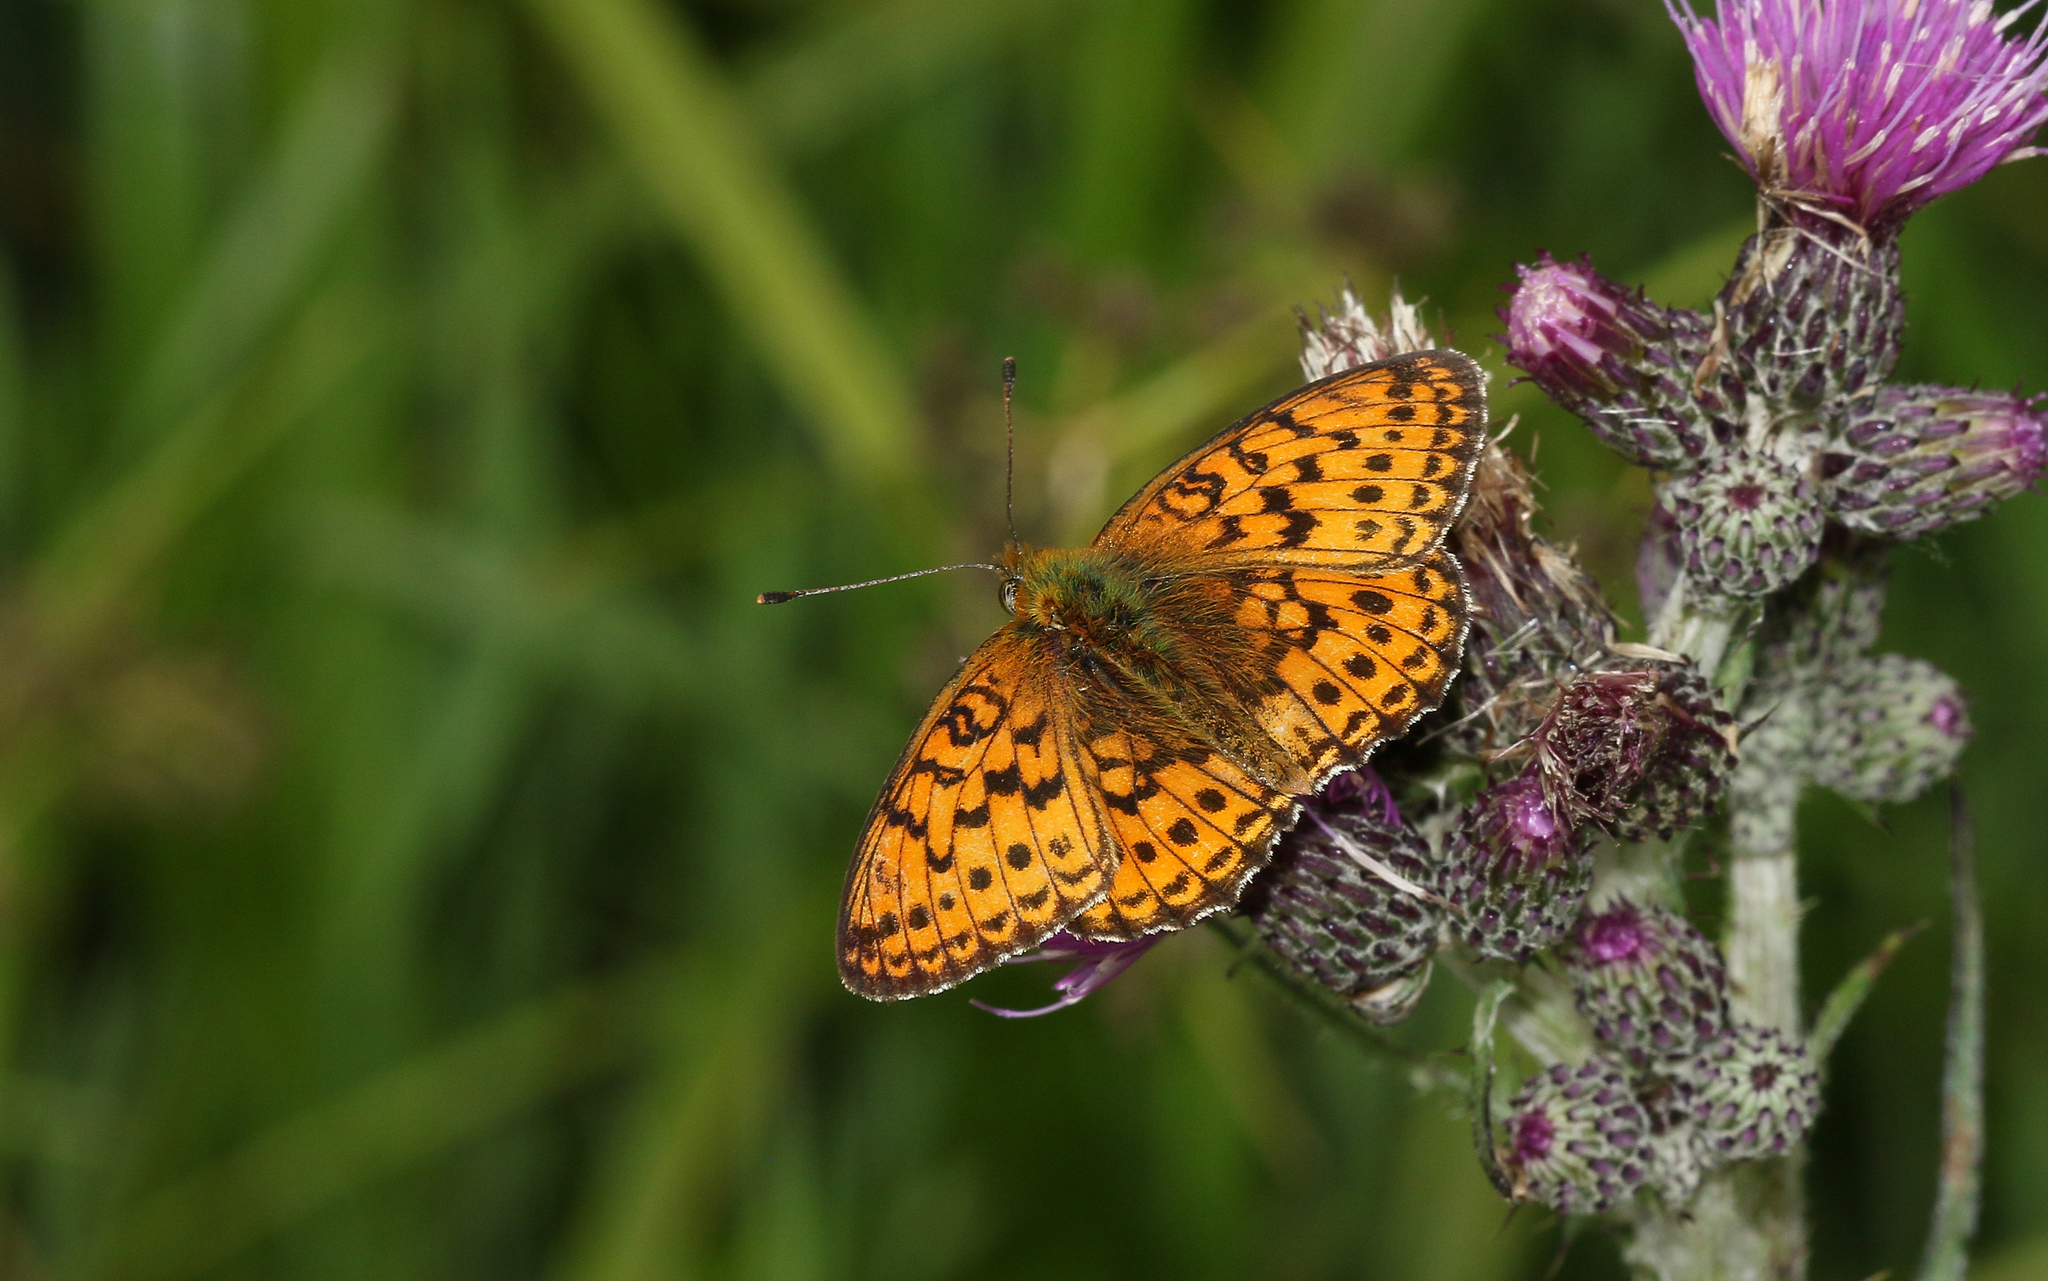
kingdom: Animalia
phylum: Arthropoda
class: Insecta
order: Lepidoptera
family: Nymphalidae
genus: Brenthis
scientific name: Brenthis ino
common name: Lesser marbled fritillary
